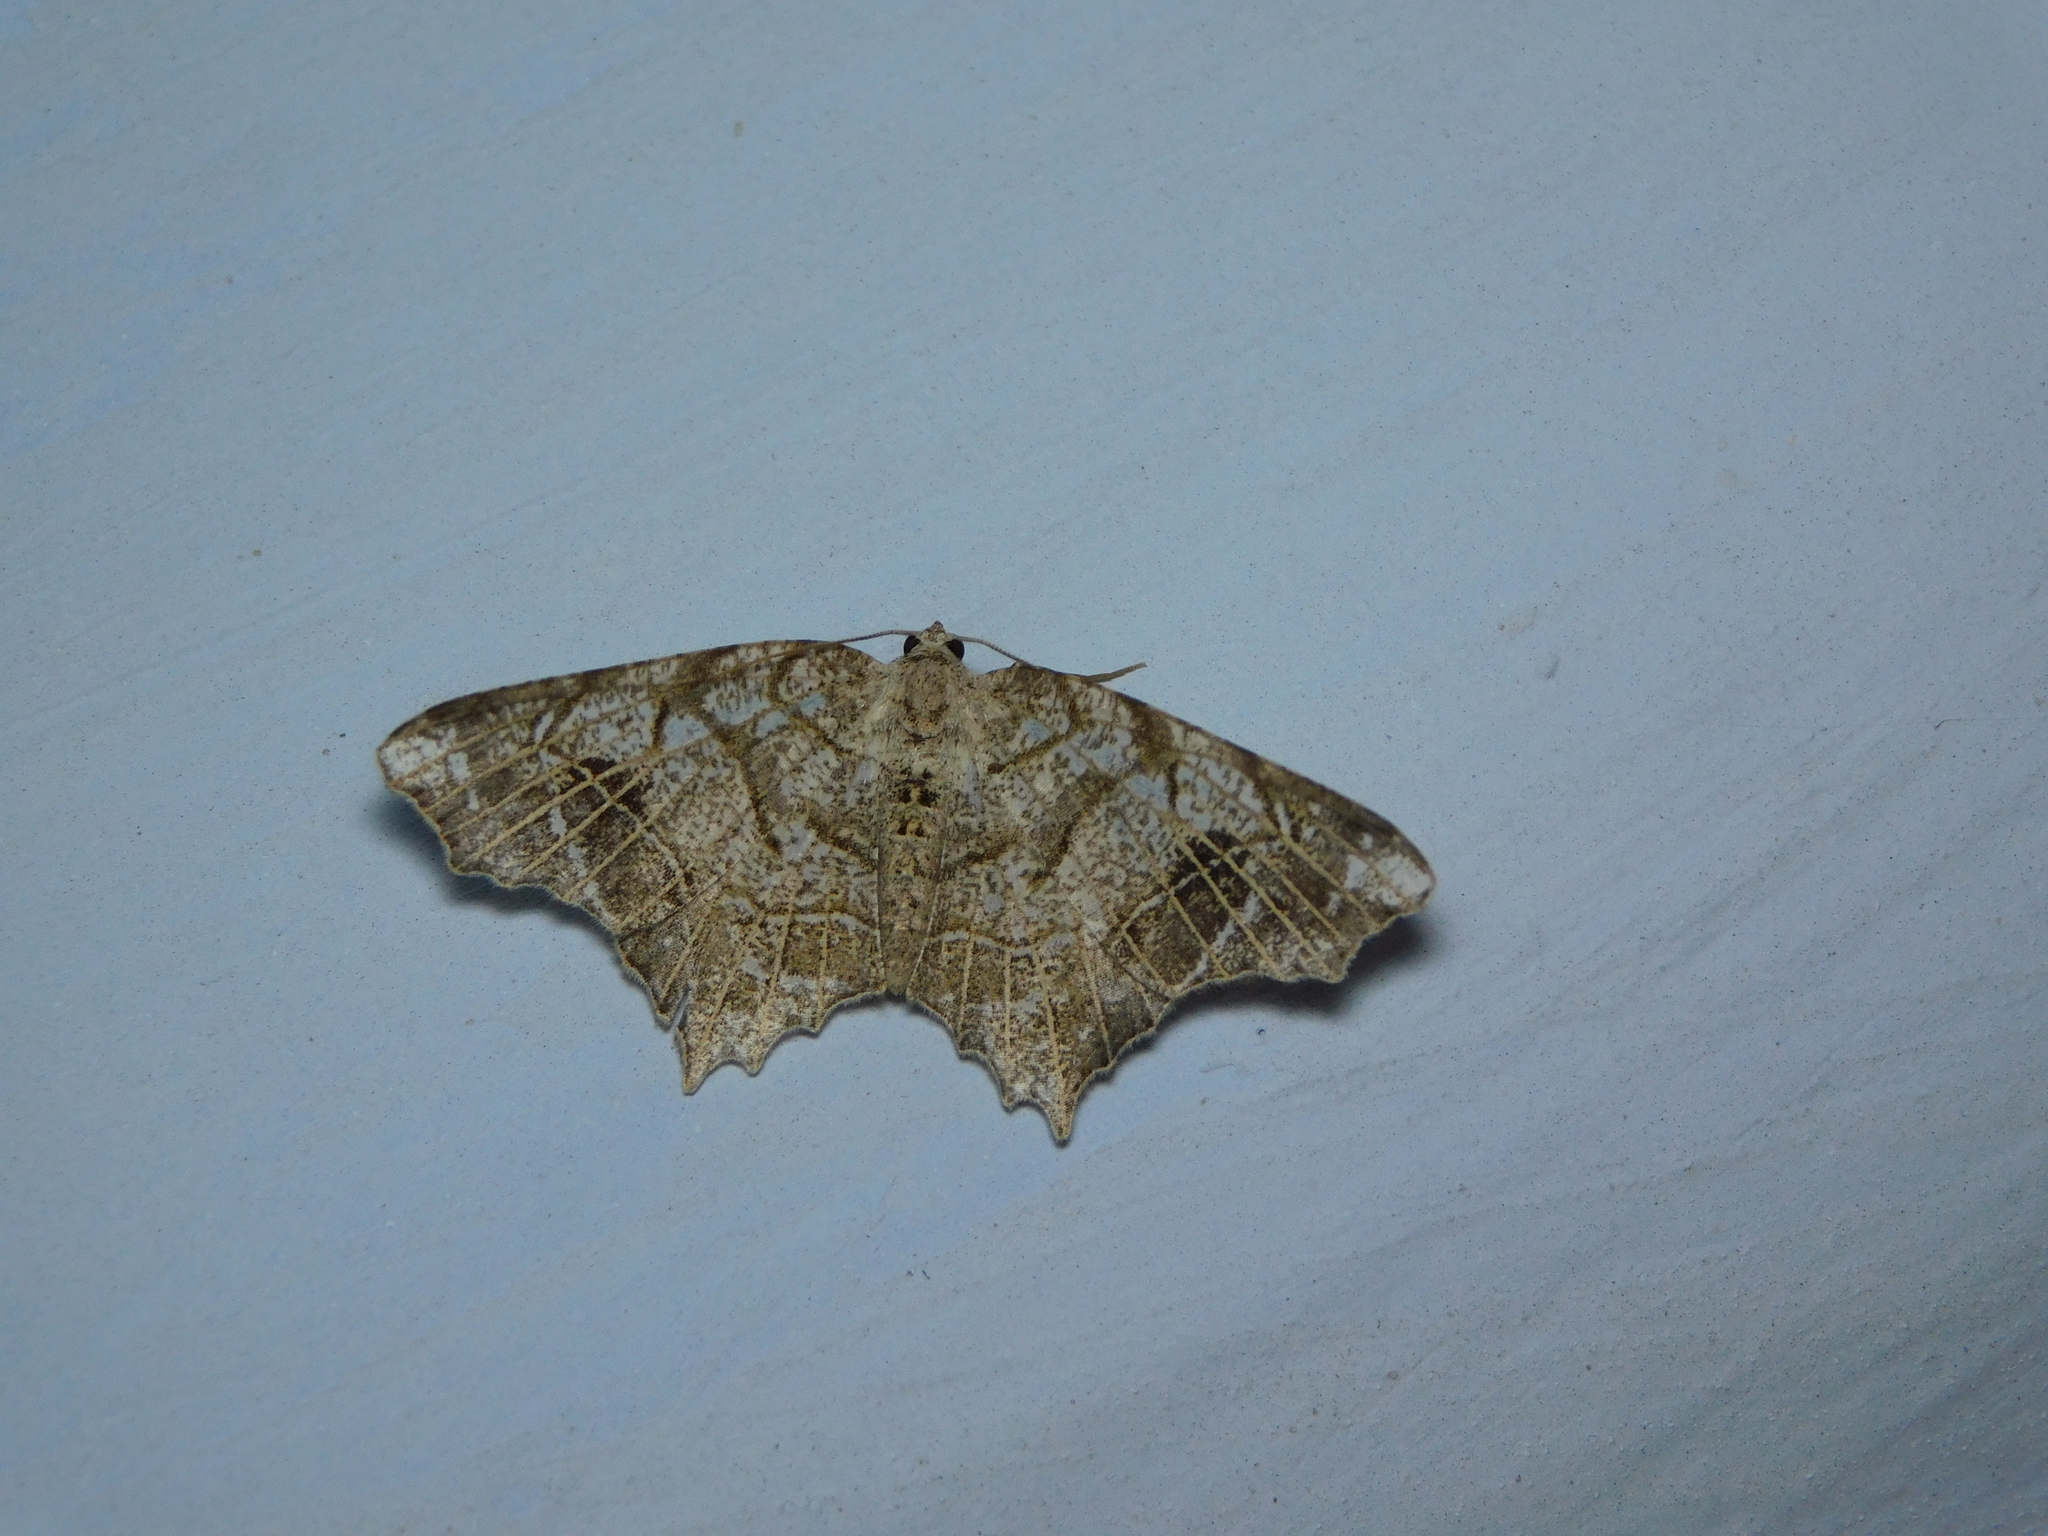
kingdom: Animalia
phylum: Arthropoda
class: Insecta
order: Lepidoptera
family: Geometridae
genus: Chiasmia
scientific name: Chiasmia emersaria
